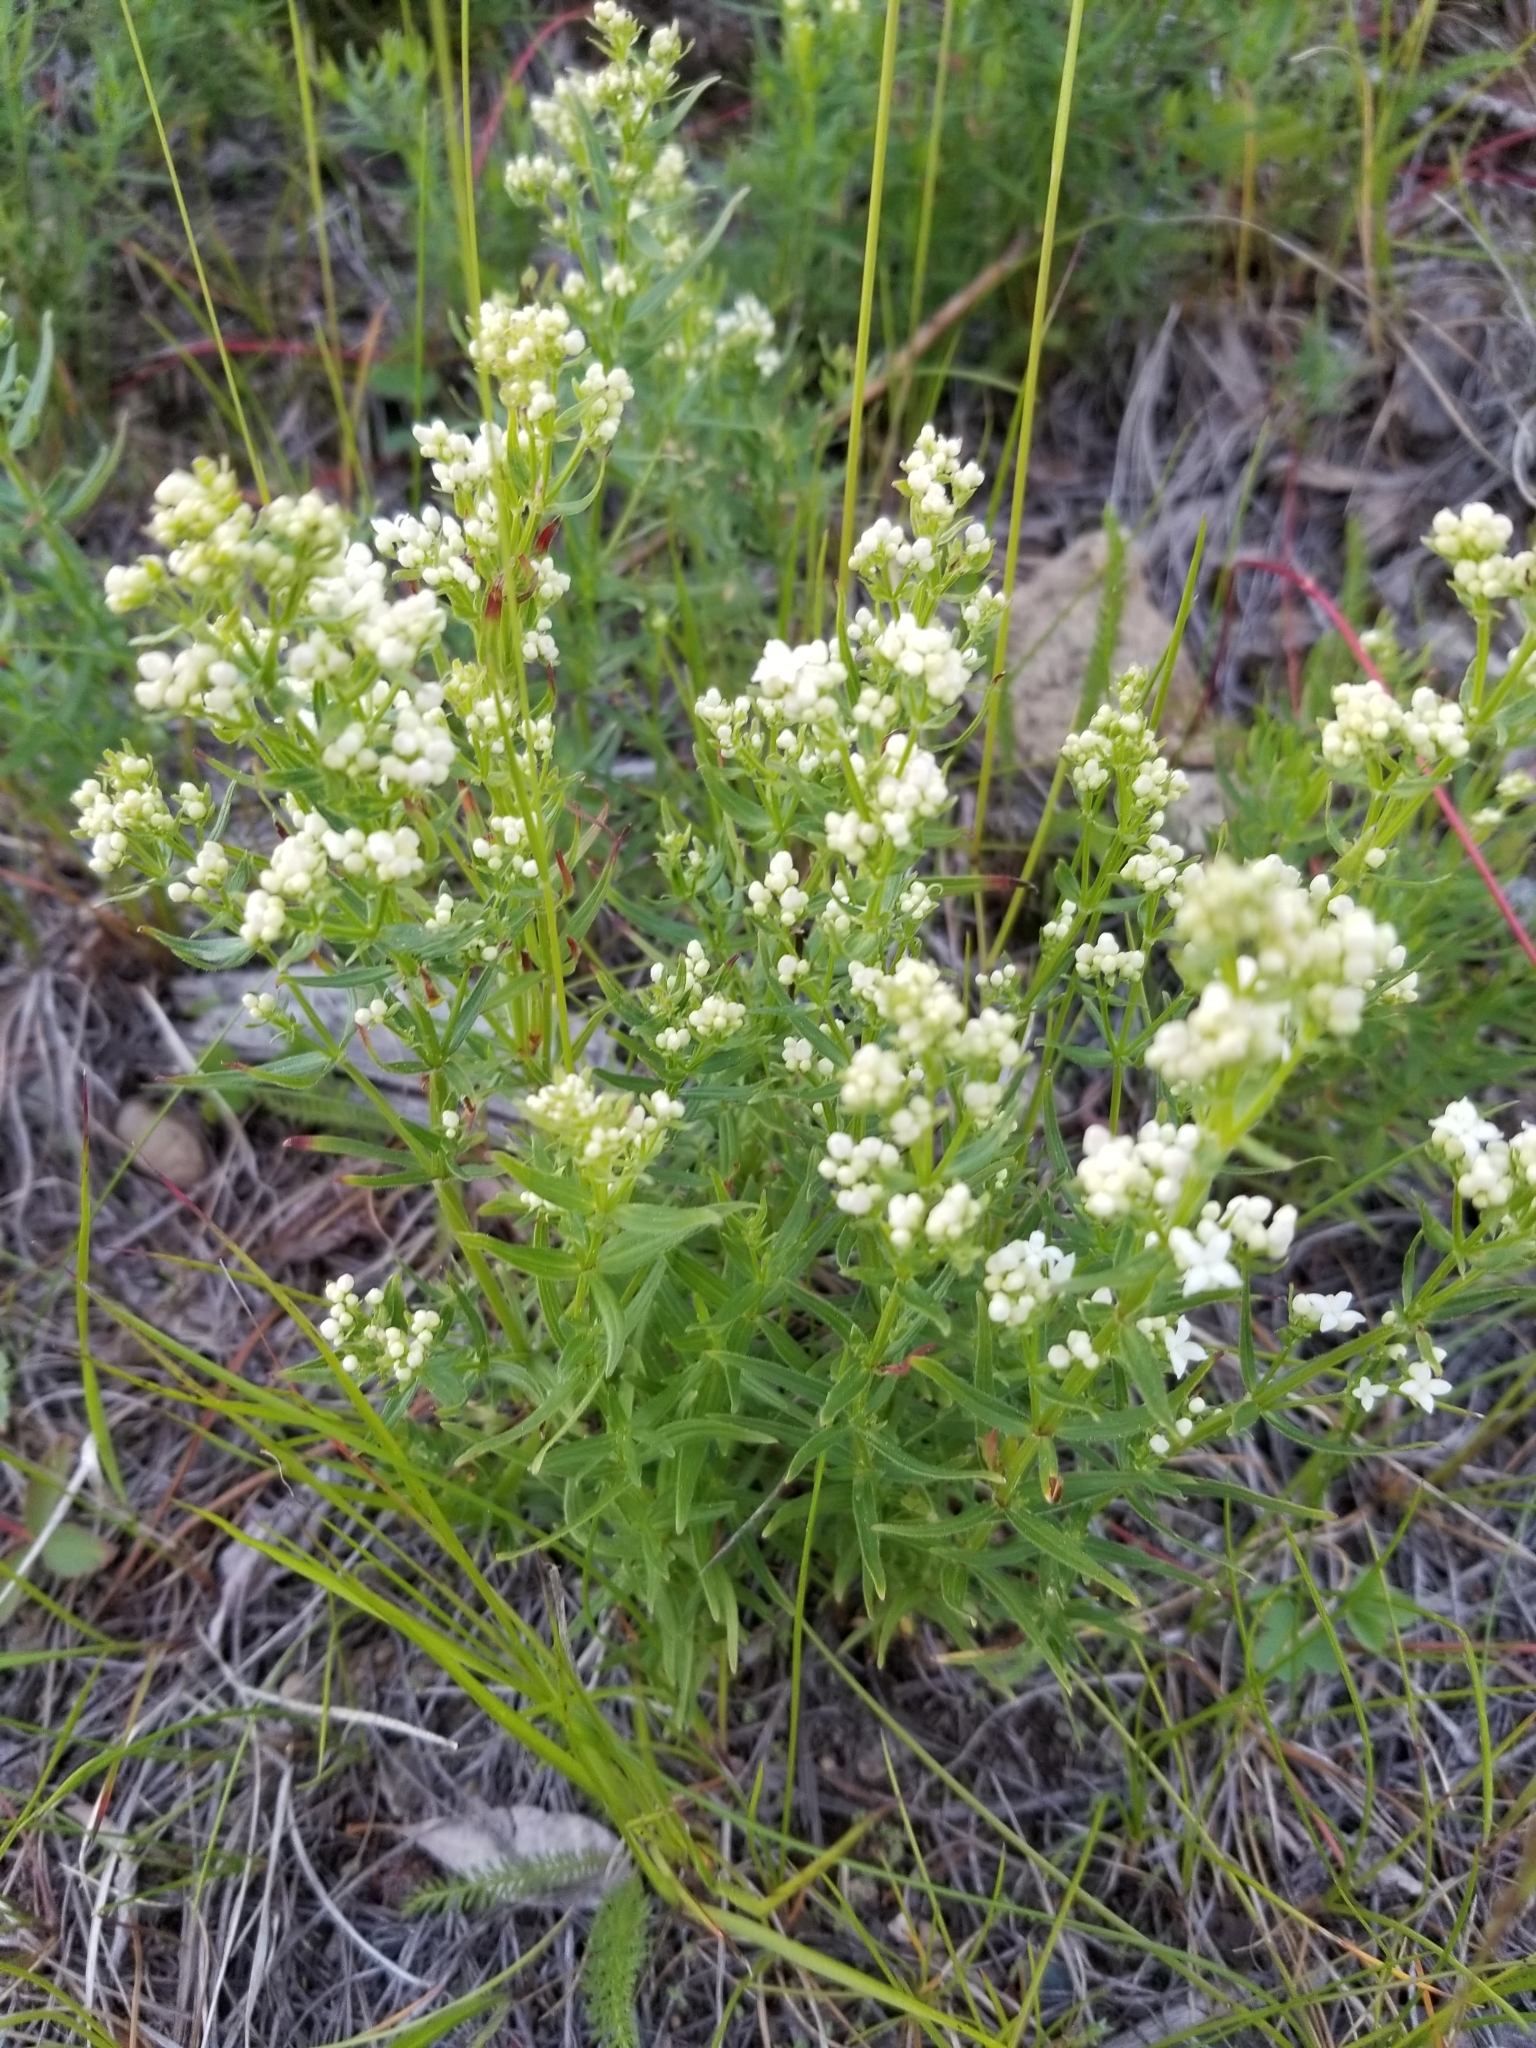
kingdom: Plantae
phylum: Tracheophyta
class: Magnoliopsida
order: Gentianales
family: Rubiaceae
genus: Galium
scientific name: Galium boreale
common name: Northern bedstraw
